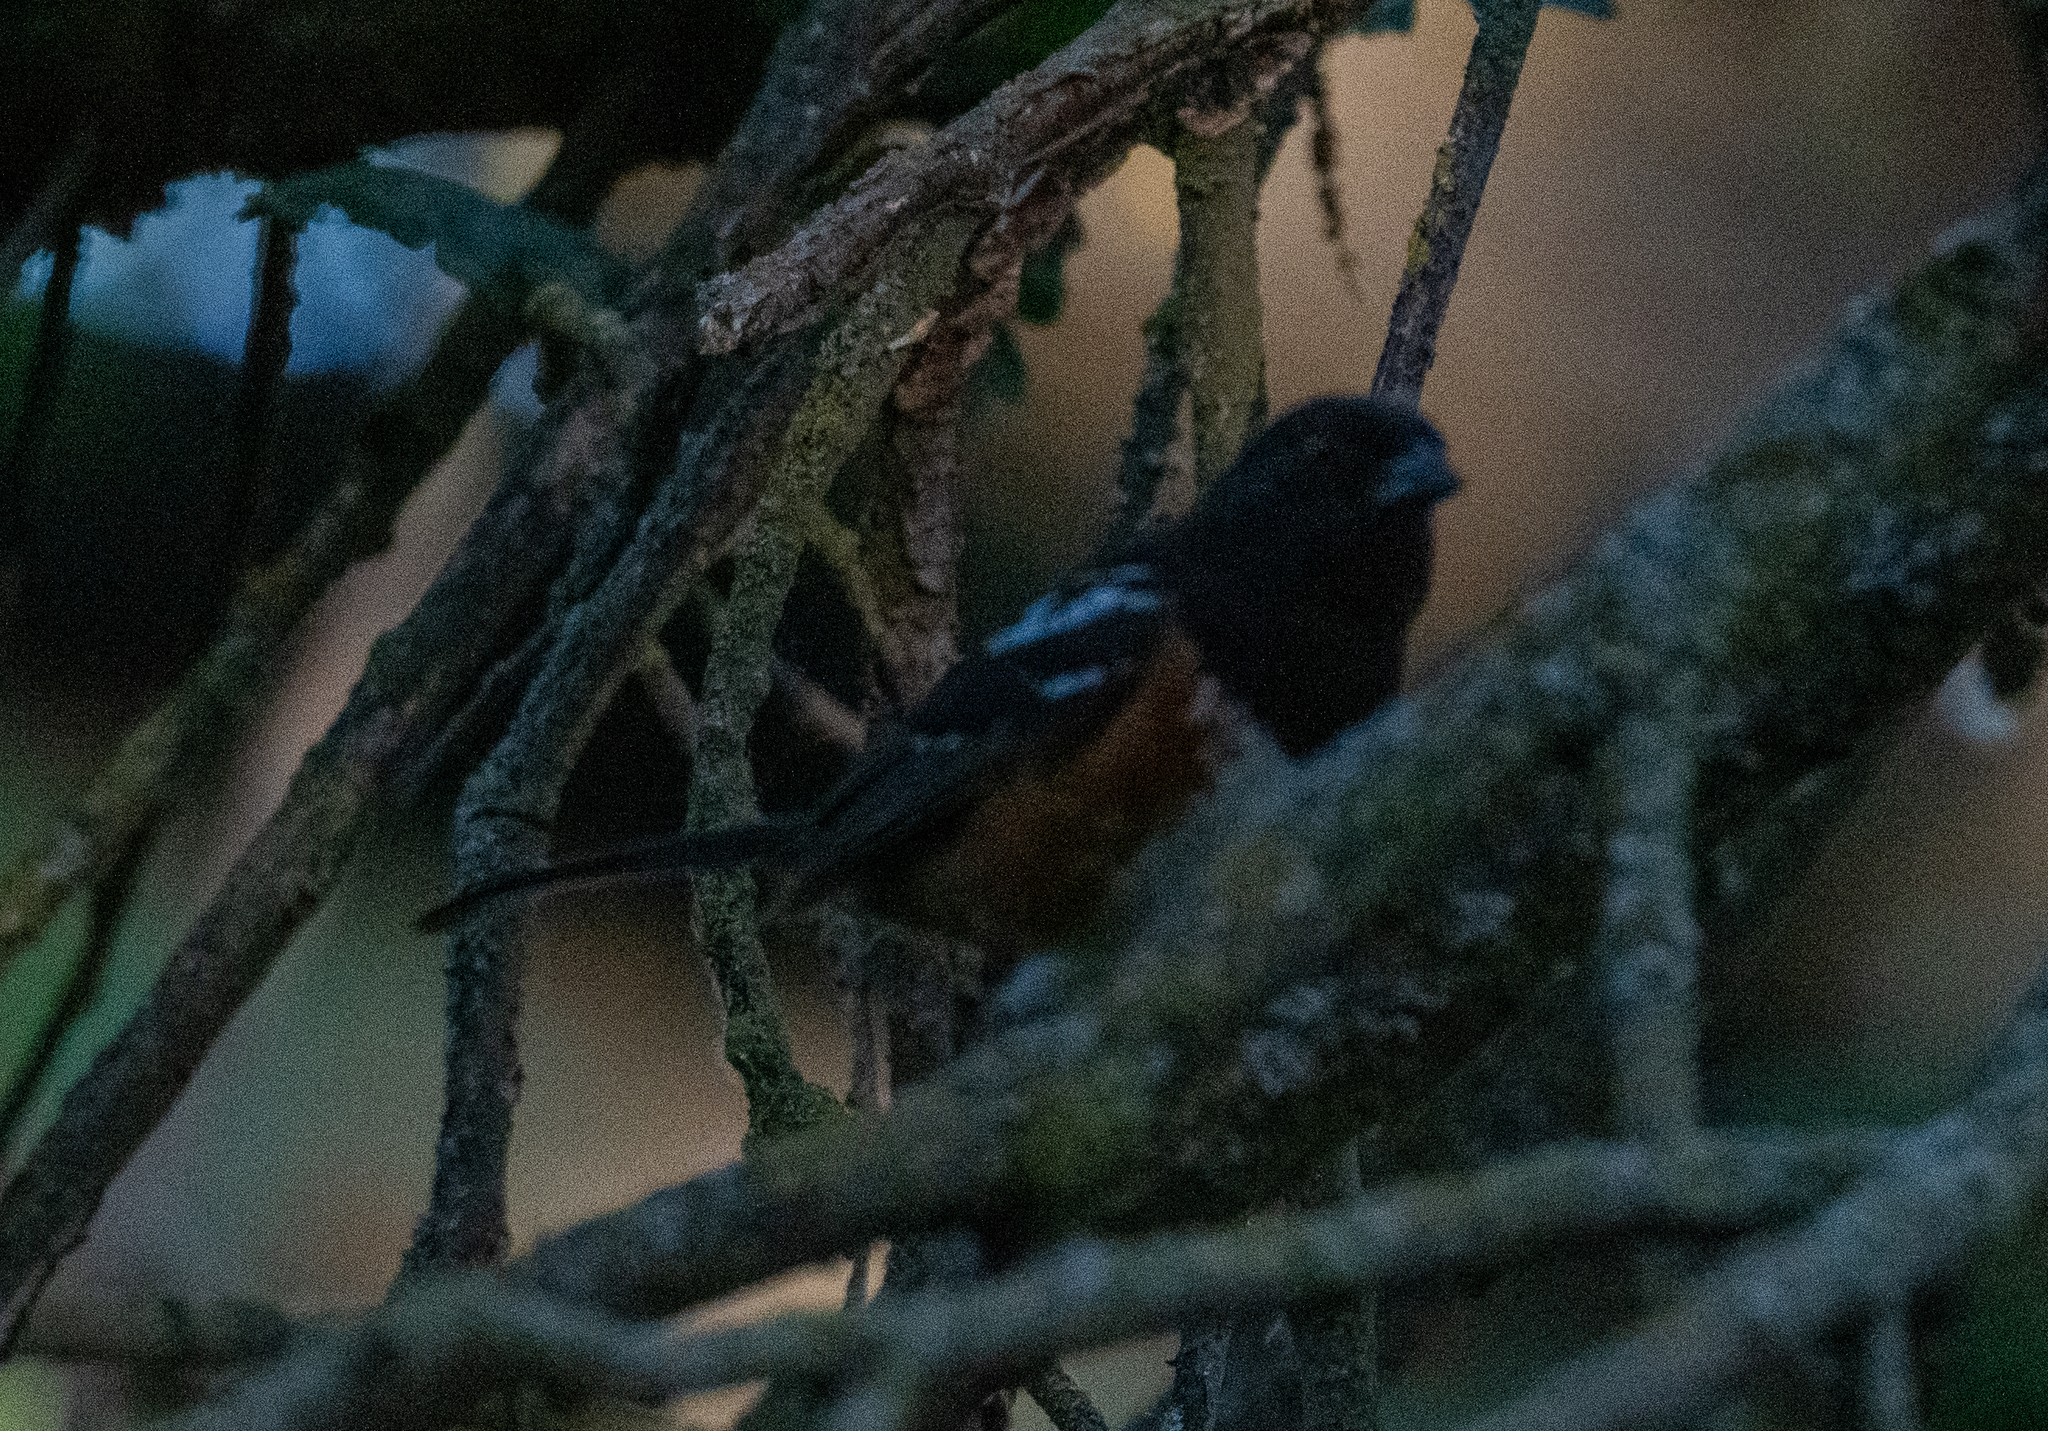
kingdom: Animalia
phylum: Chordata
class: Aves
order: Passeriformes
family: Passerellidae
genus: Pipilo
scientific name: Pipilo maculatus
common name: Spotted towhee
